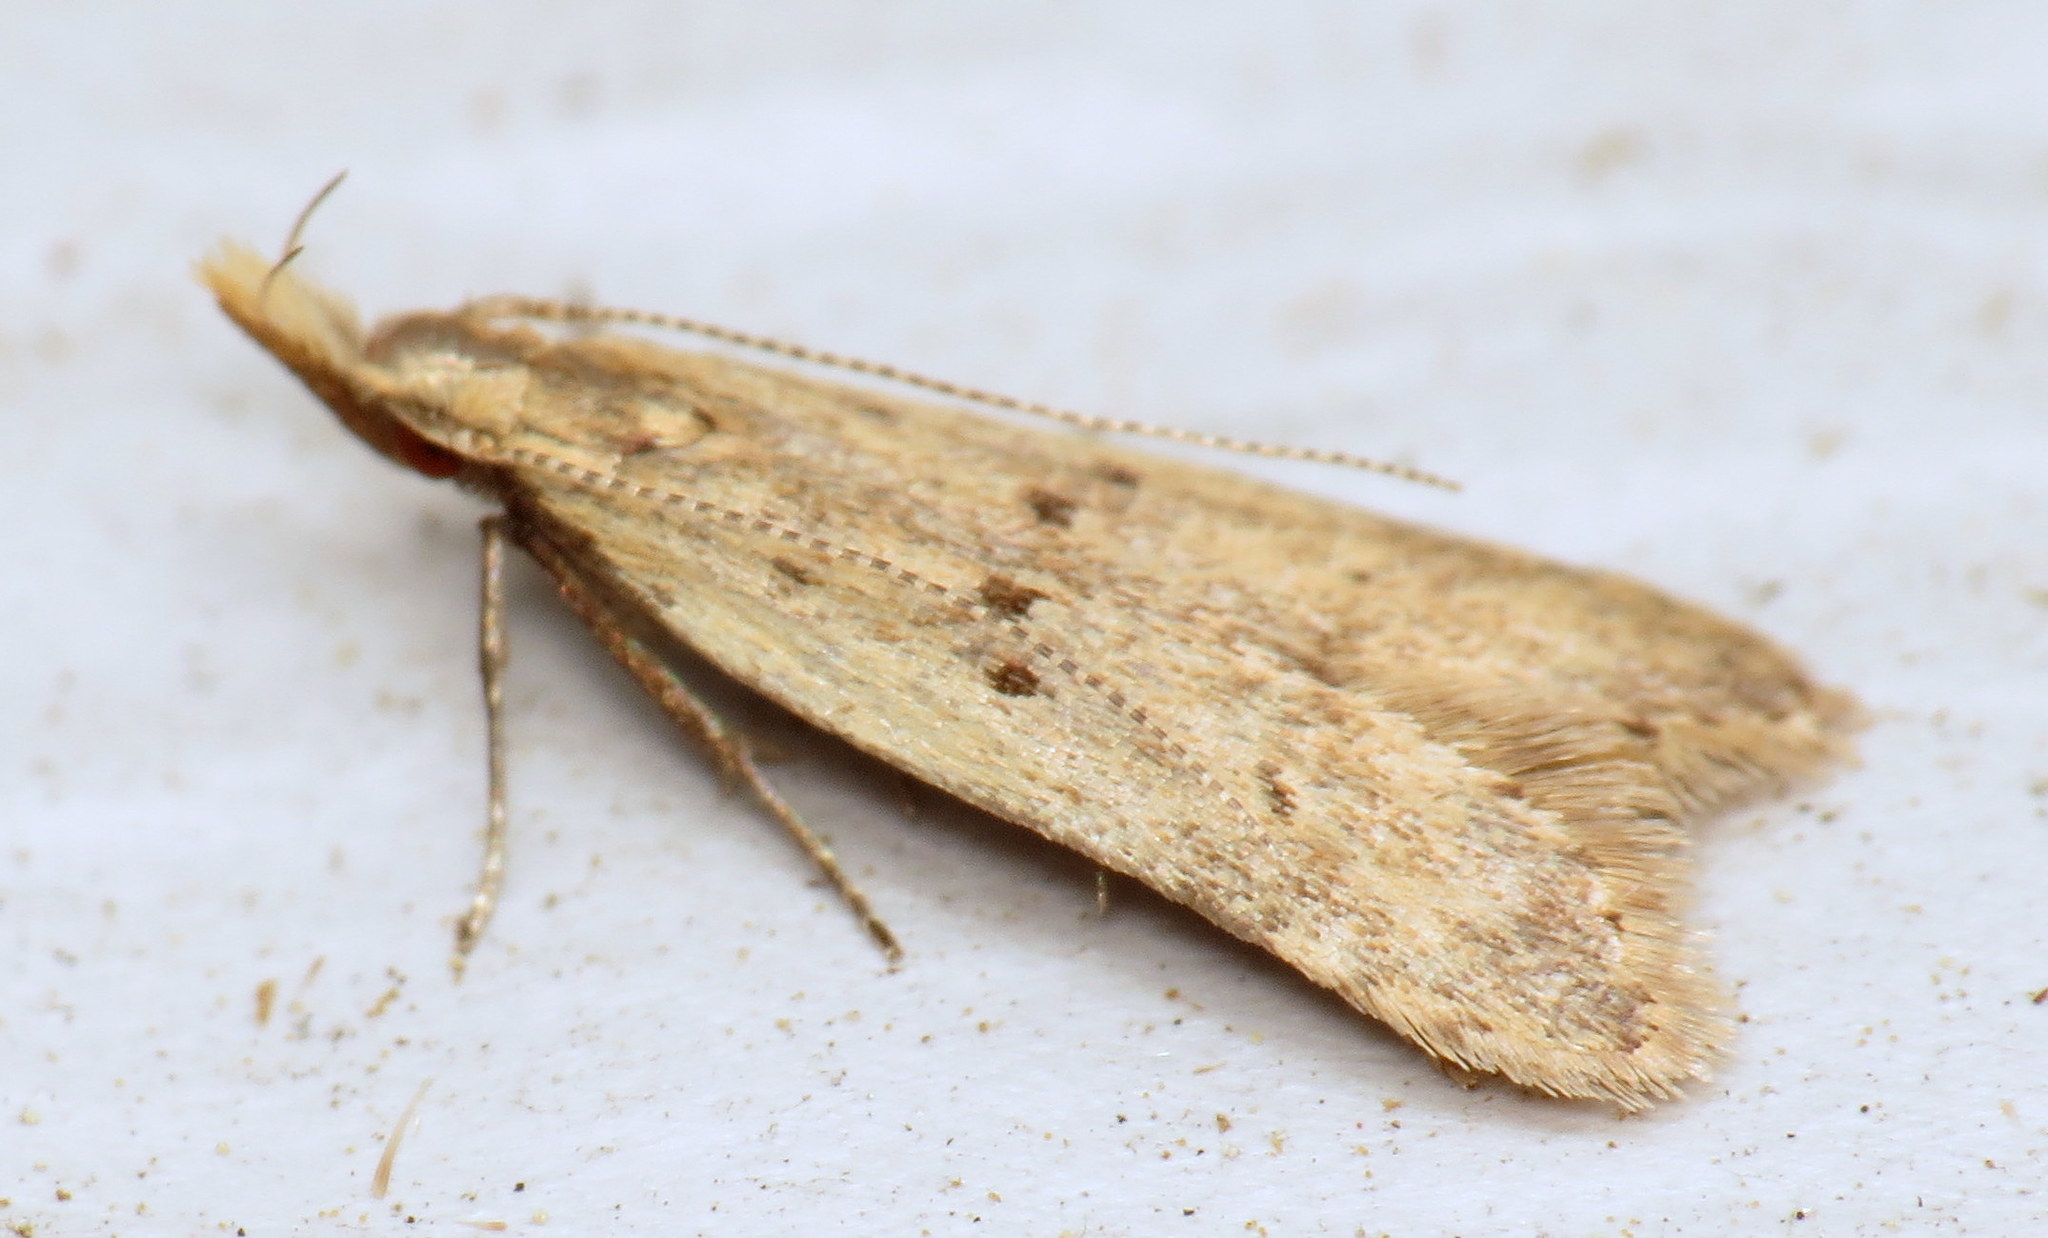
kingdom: Animalia
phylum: Arthropoda
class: Insecta
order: Lepidoptera
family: Gelechiidae
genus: Dichomeris
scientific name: Dichomeris punctipennella
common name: Many-spotted dichomeris moth
